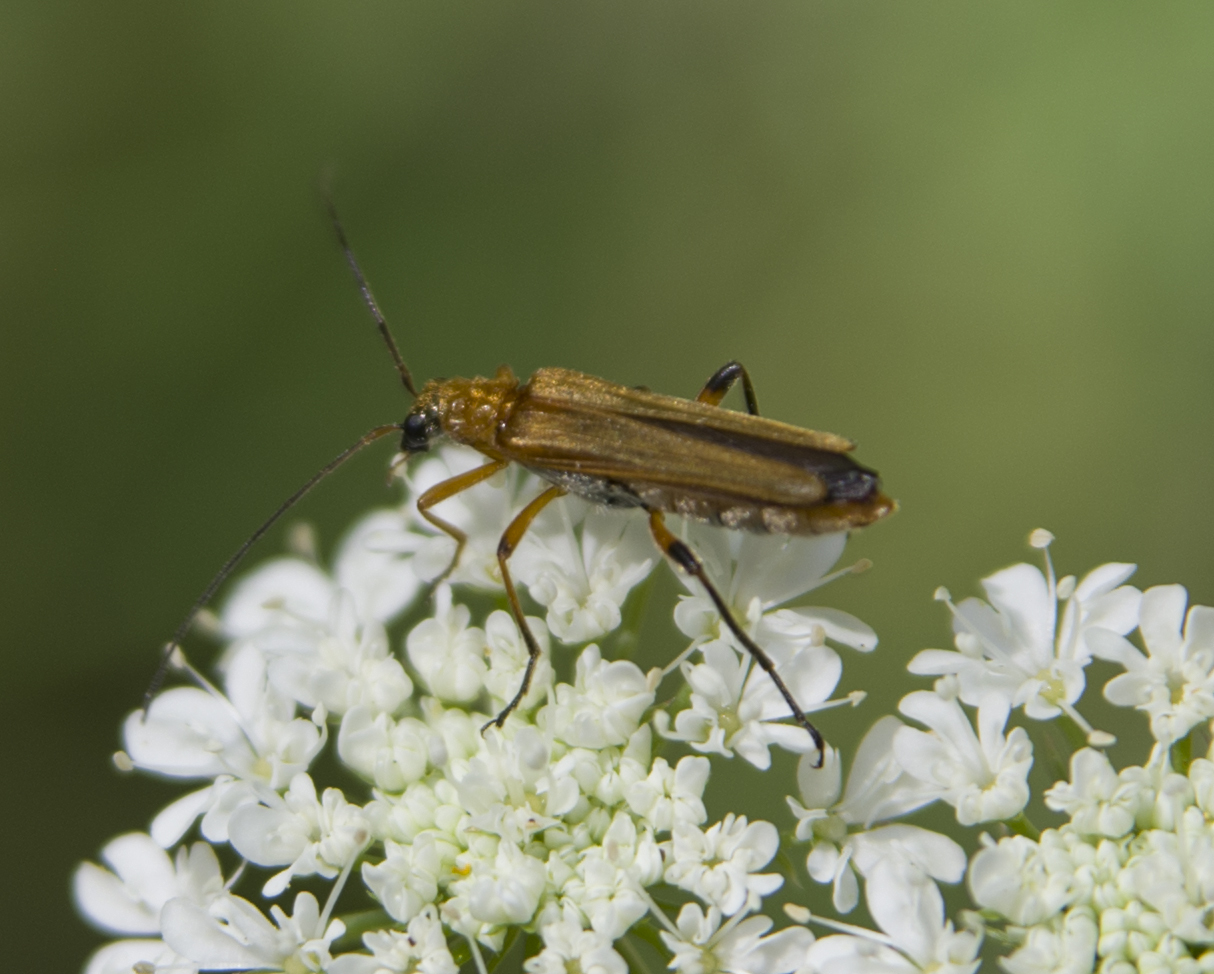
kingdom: Animalia
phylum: Arthropoda
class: Insecta
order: Coleoptera
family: Oedemeridae
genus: Oedemera
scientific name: Oedemera podagrariae
